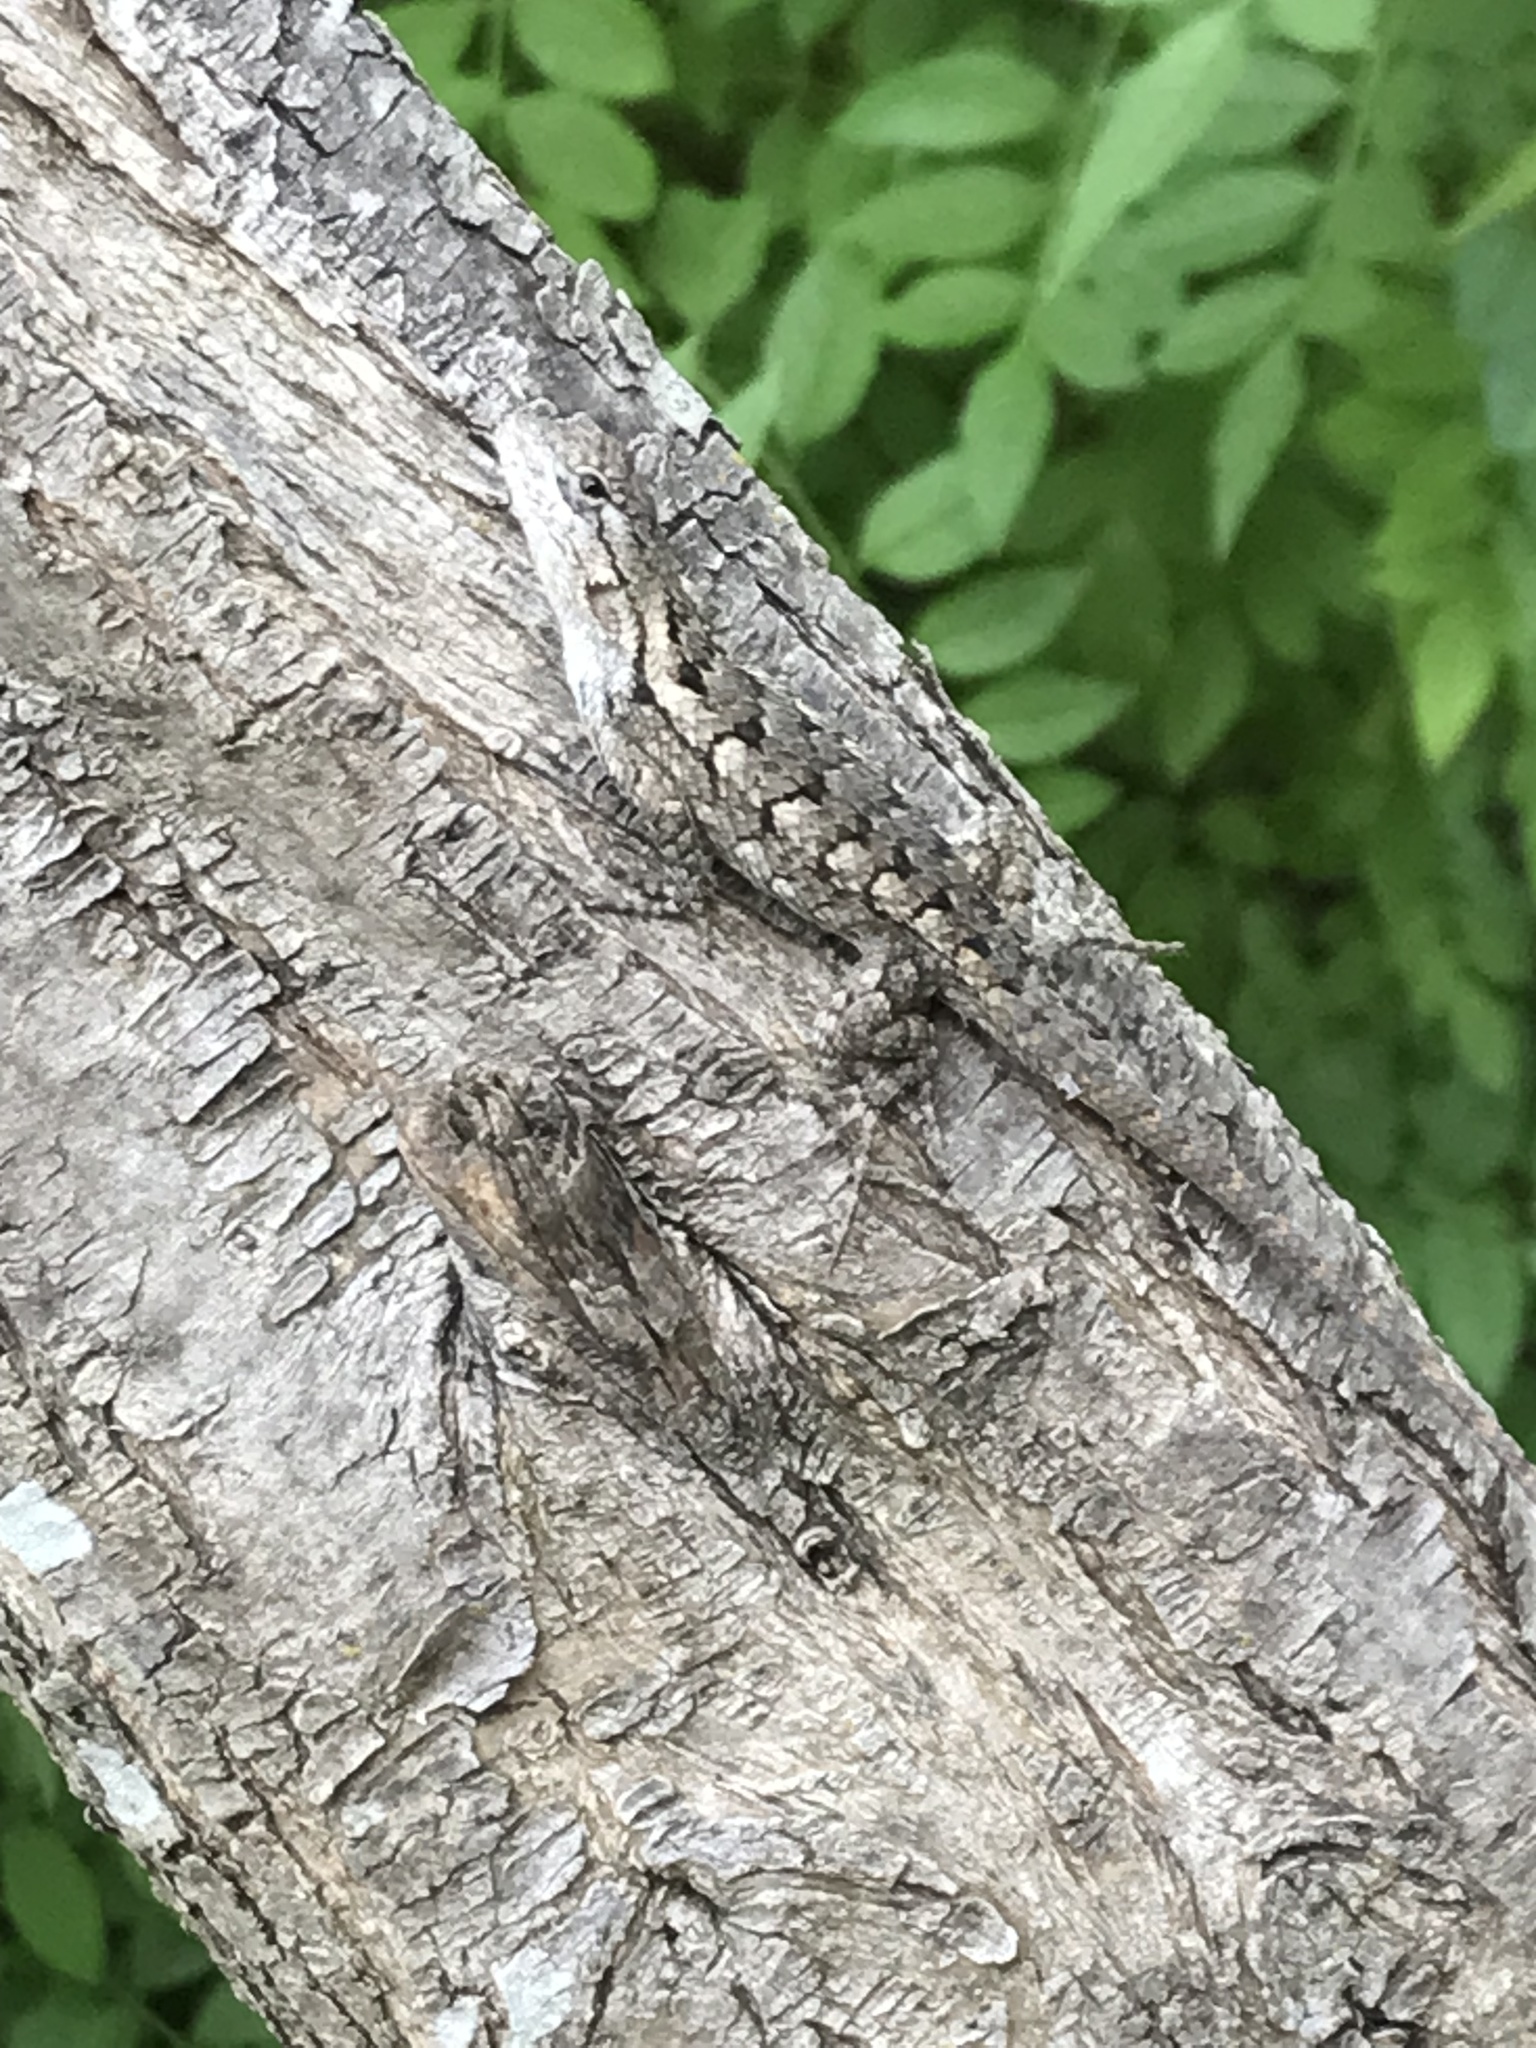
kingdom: Animalia
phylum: Chordata
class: Squamata
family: Phrynosomatidae
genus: Sceloporus
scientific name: Sceloporus olivaceus
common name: Texas spiny lizard
